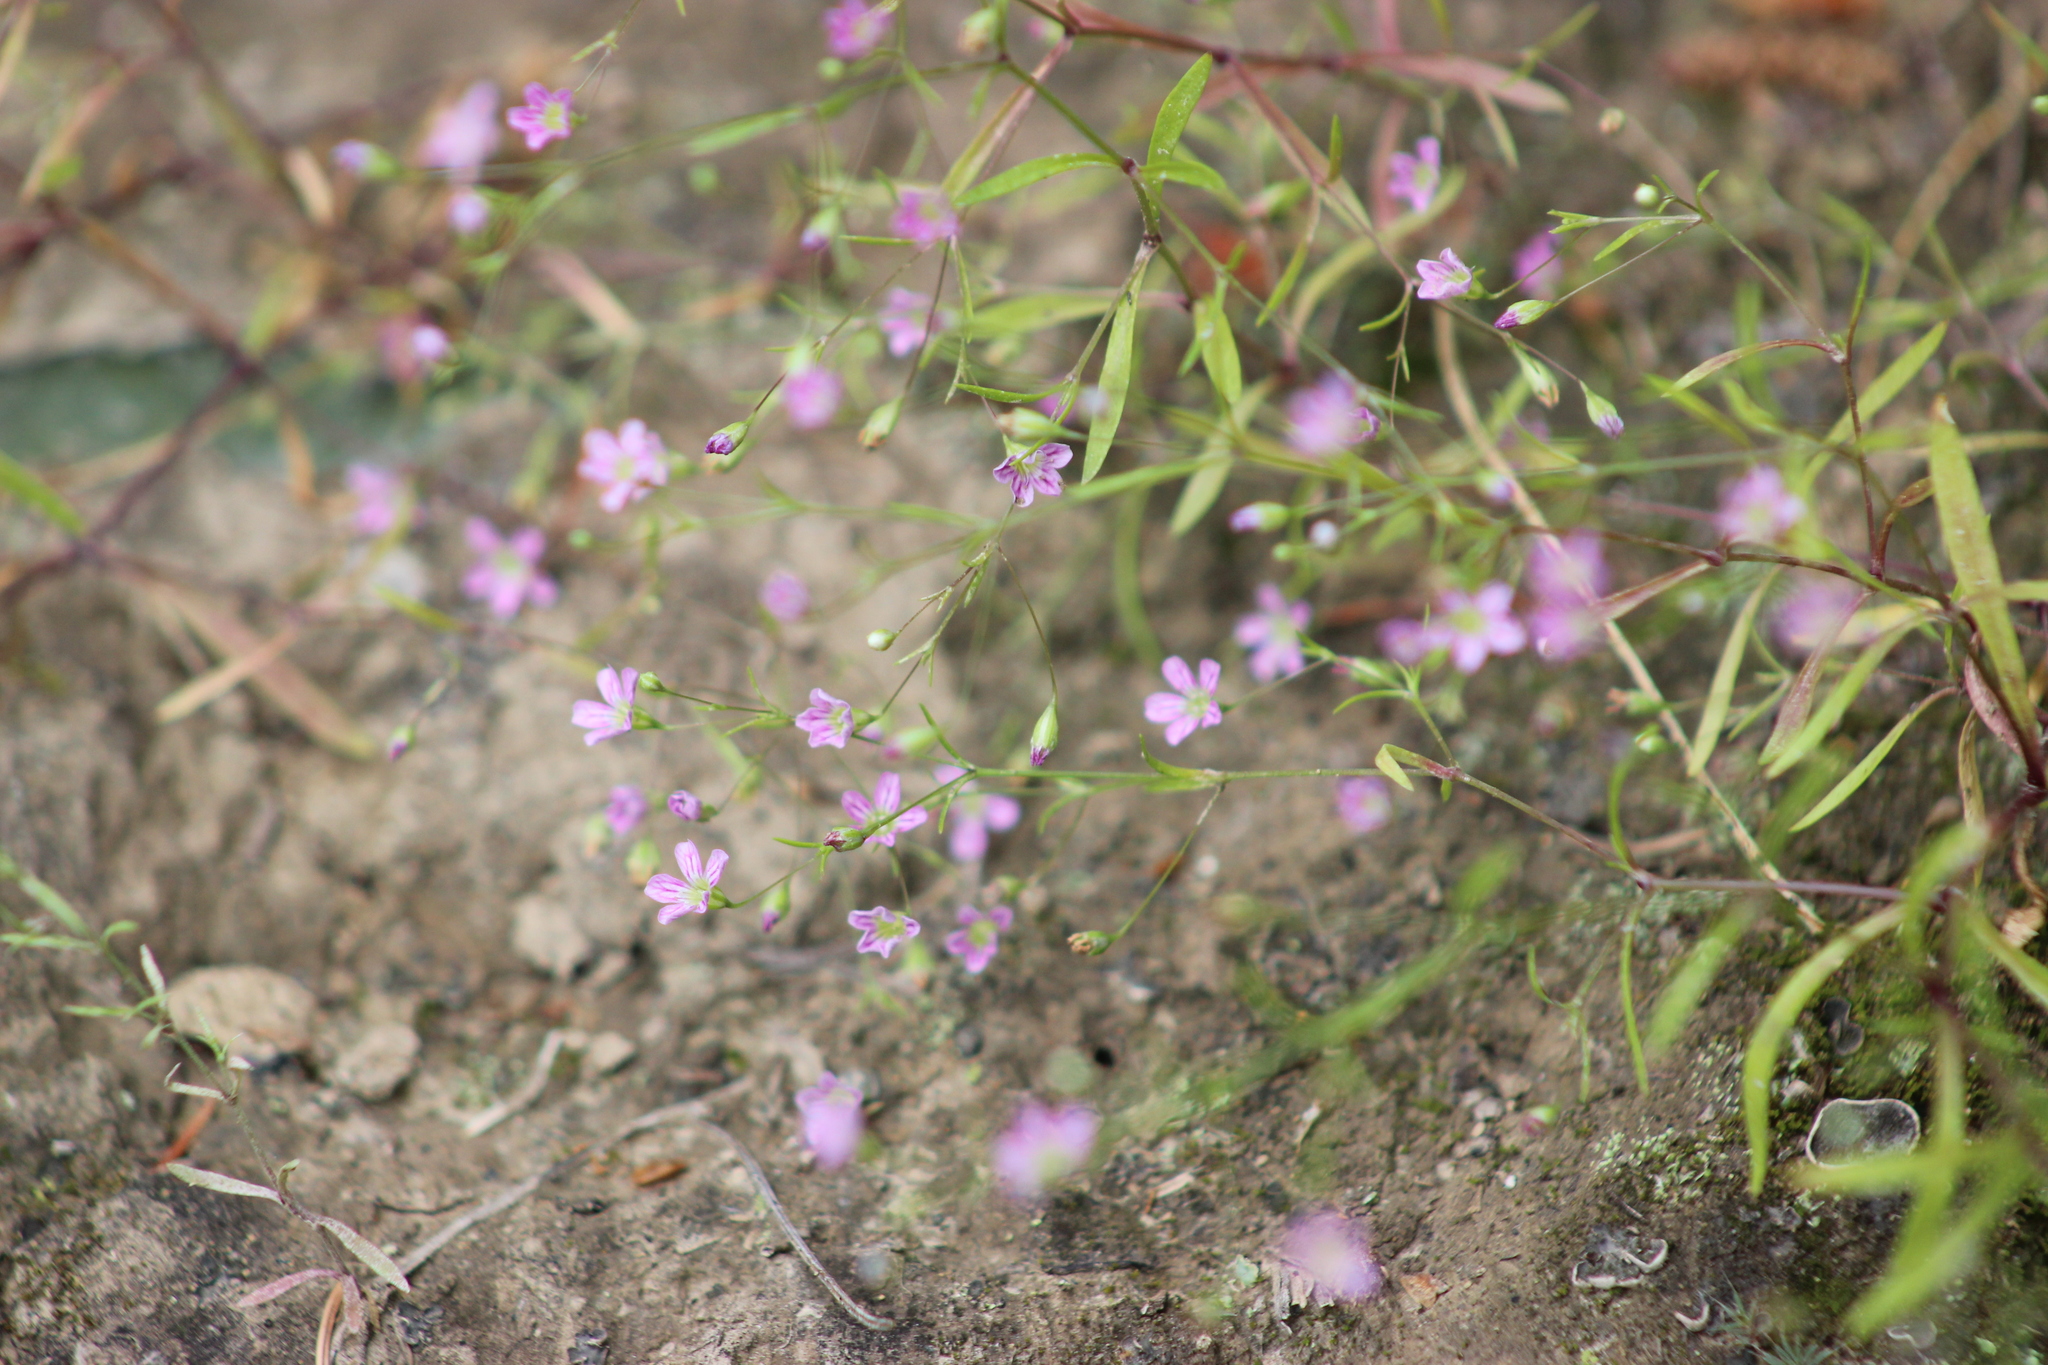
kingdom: Plantae
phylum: Tracheophyta
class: Magnoliopsida
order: Caryophyllales
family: Caryophyllaceae
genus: Psammophiliella
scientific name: Psammophiliella muralis
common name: Cushion baby's-breath
